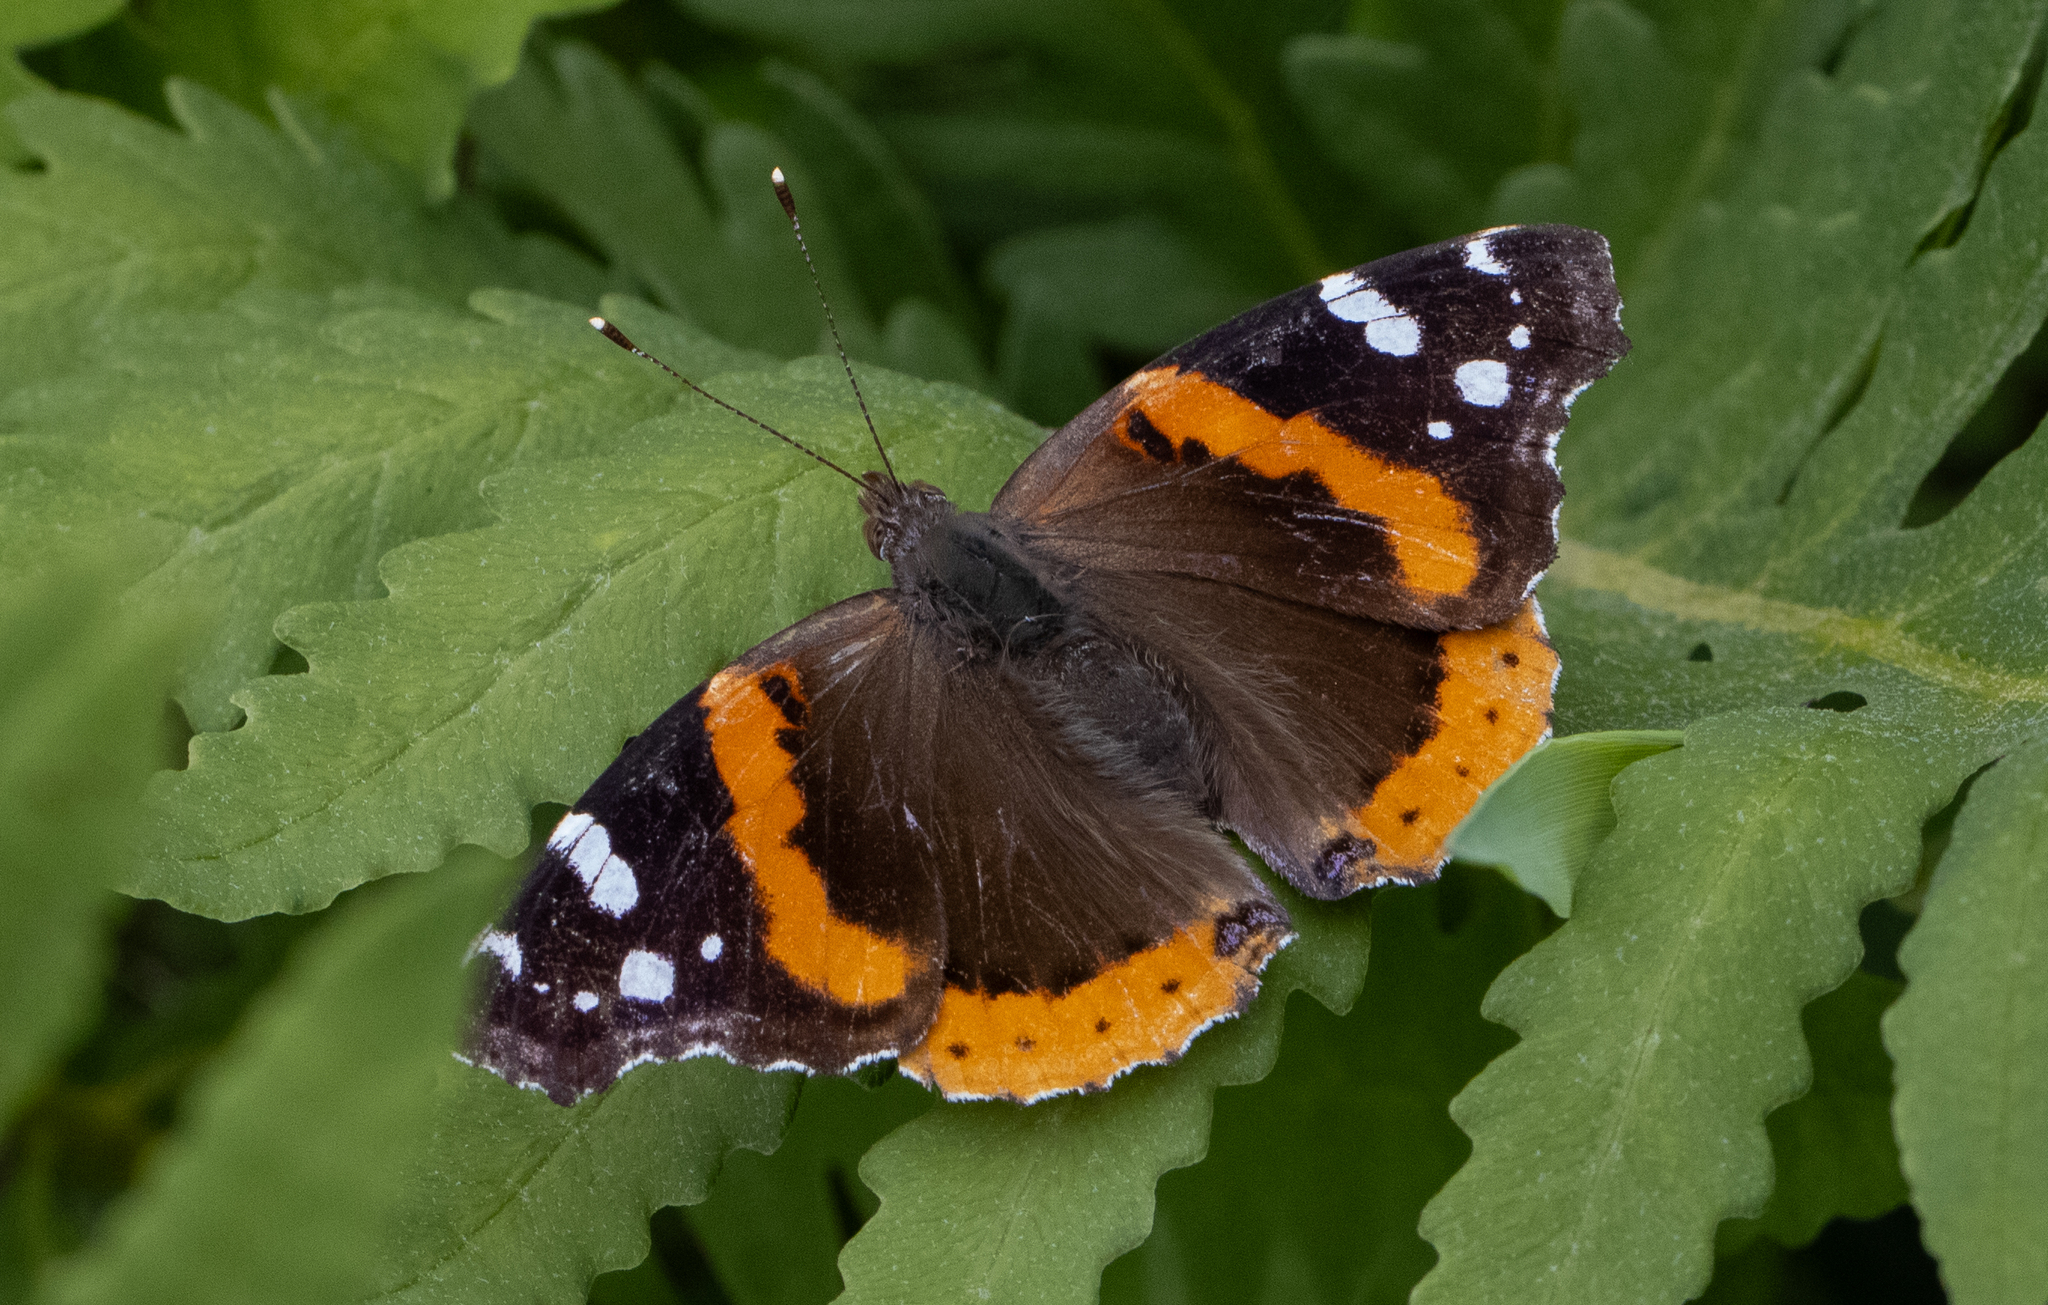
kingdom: Animalia
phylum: Arthropoda
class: Insecta
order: Lepidoptera
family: Nymphalidae
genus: Vanessa
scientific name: Vanessa atalanta
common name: Red admiral
